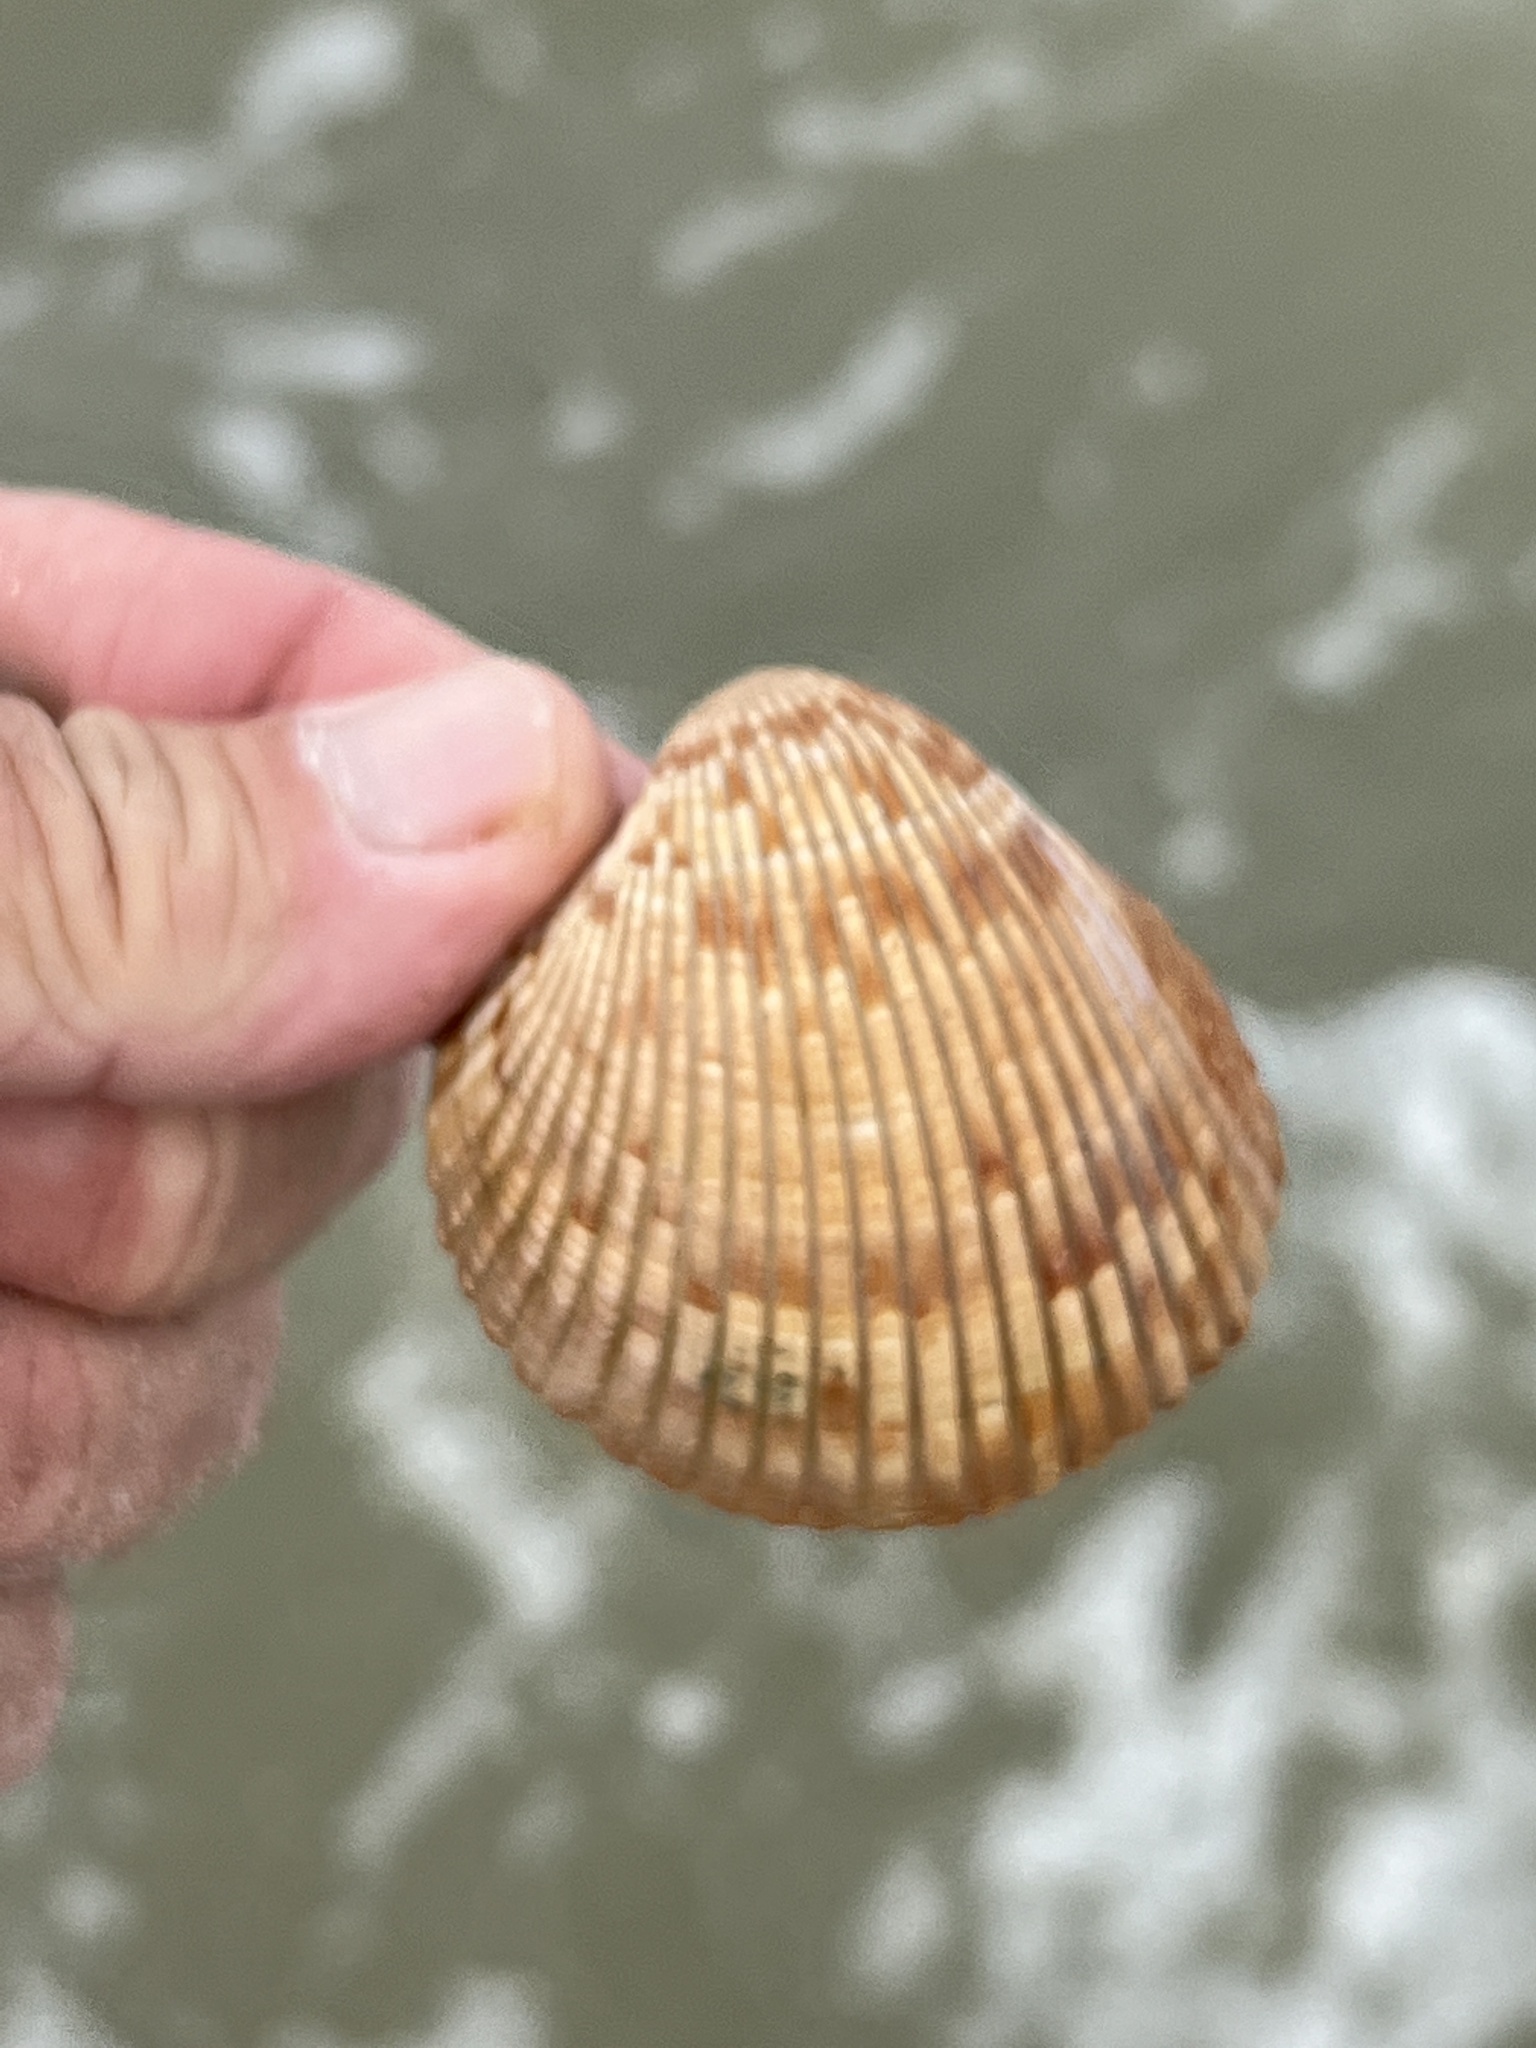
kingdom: Animalia
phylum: Mollusca
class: Bivalvia
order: Cardiida
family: Cardiidae
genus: Dinocardium
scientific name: Dinocardium robustum
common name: Atlantic giant cockle
